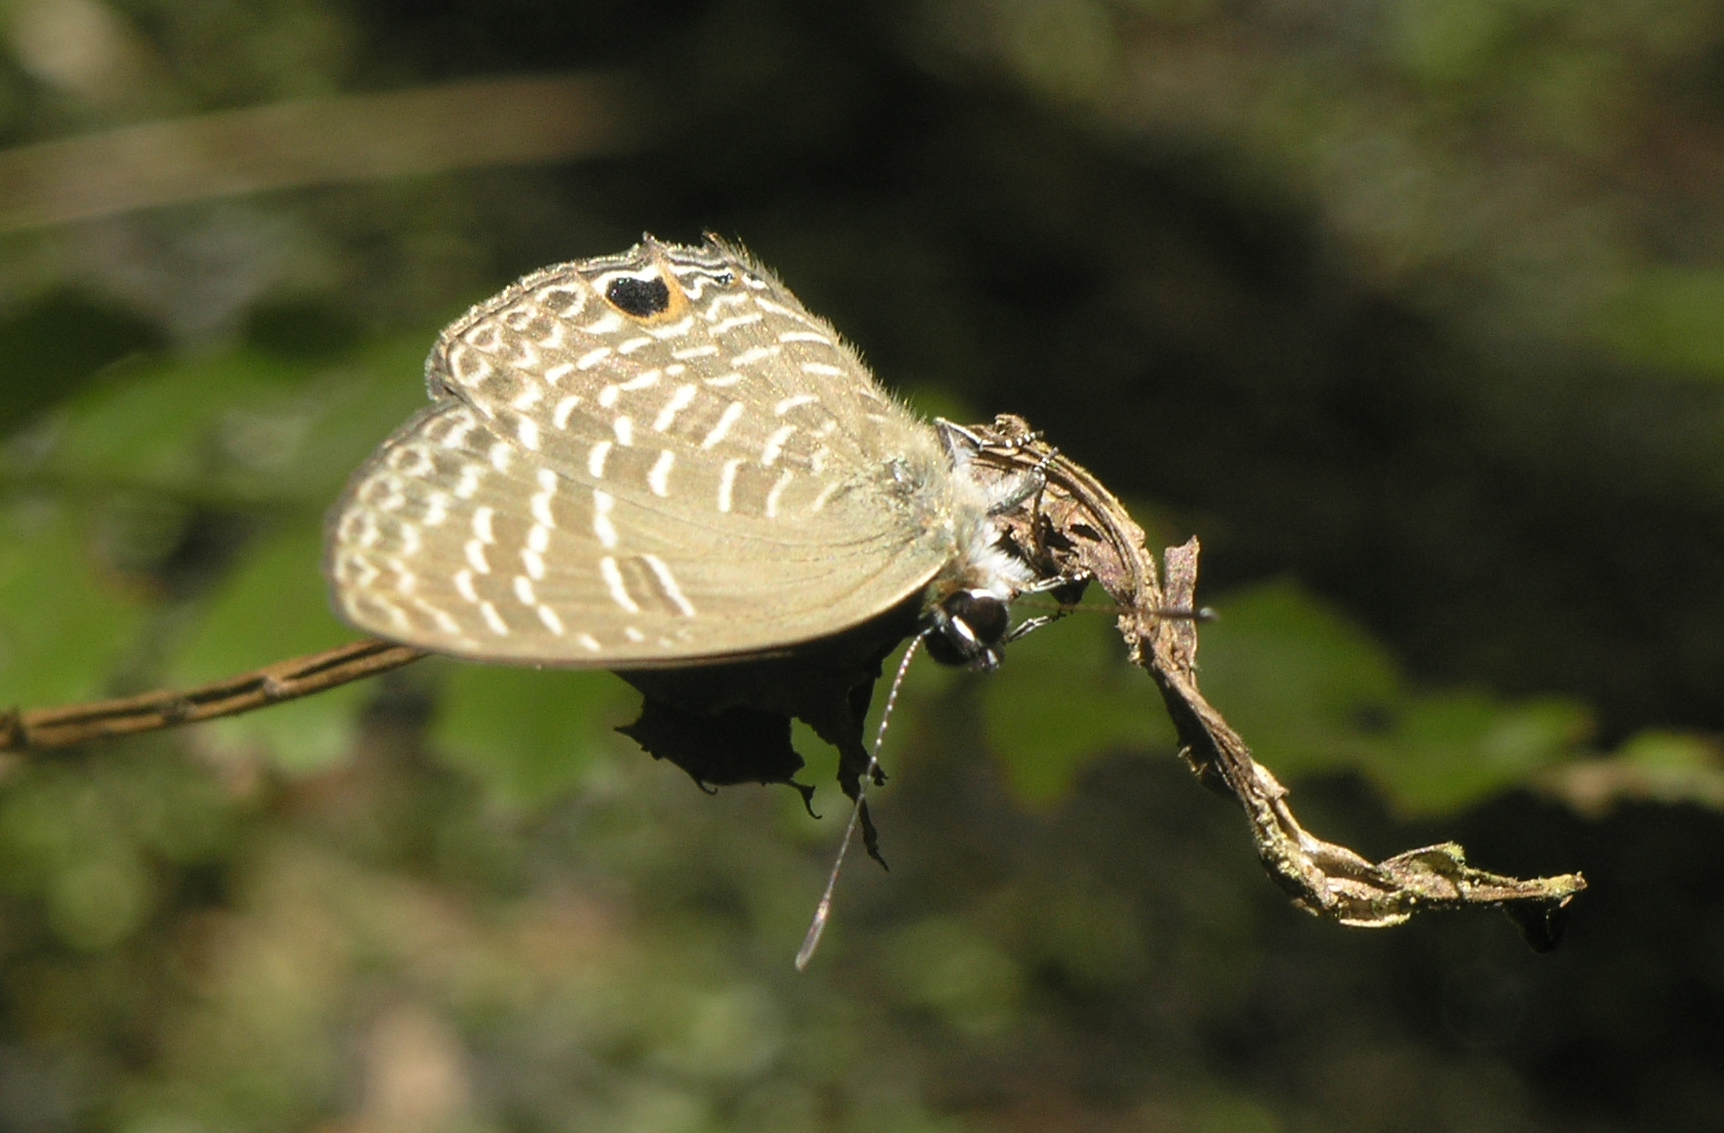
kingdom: Animalia
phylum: Arthropoda
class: Insecta
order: Lepidoptera
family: Lycaenidae
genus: Nacaduba
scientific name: Nacaduba sanaya
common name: Jewel fourline blue
